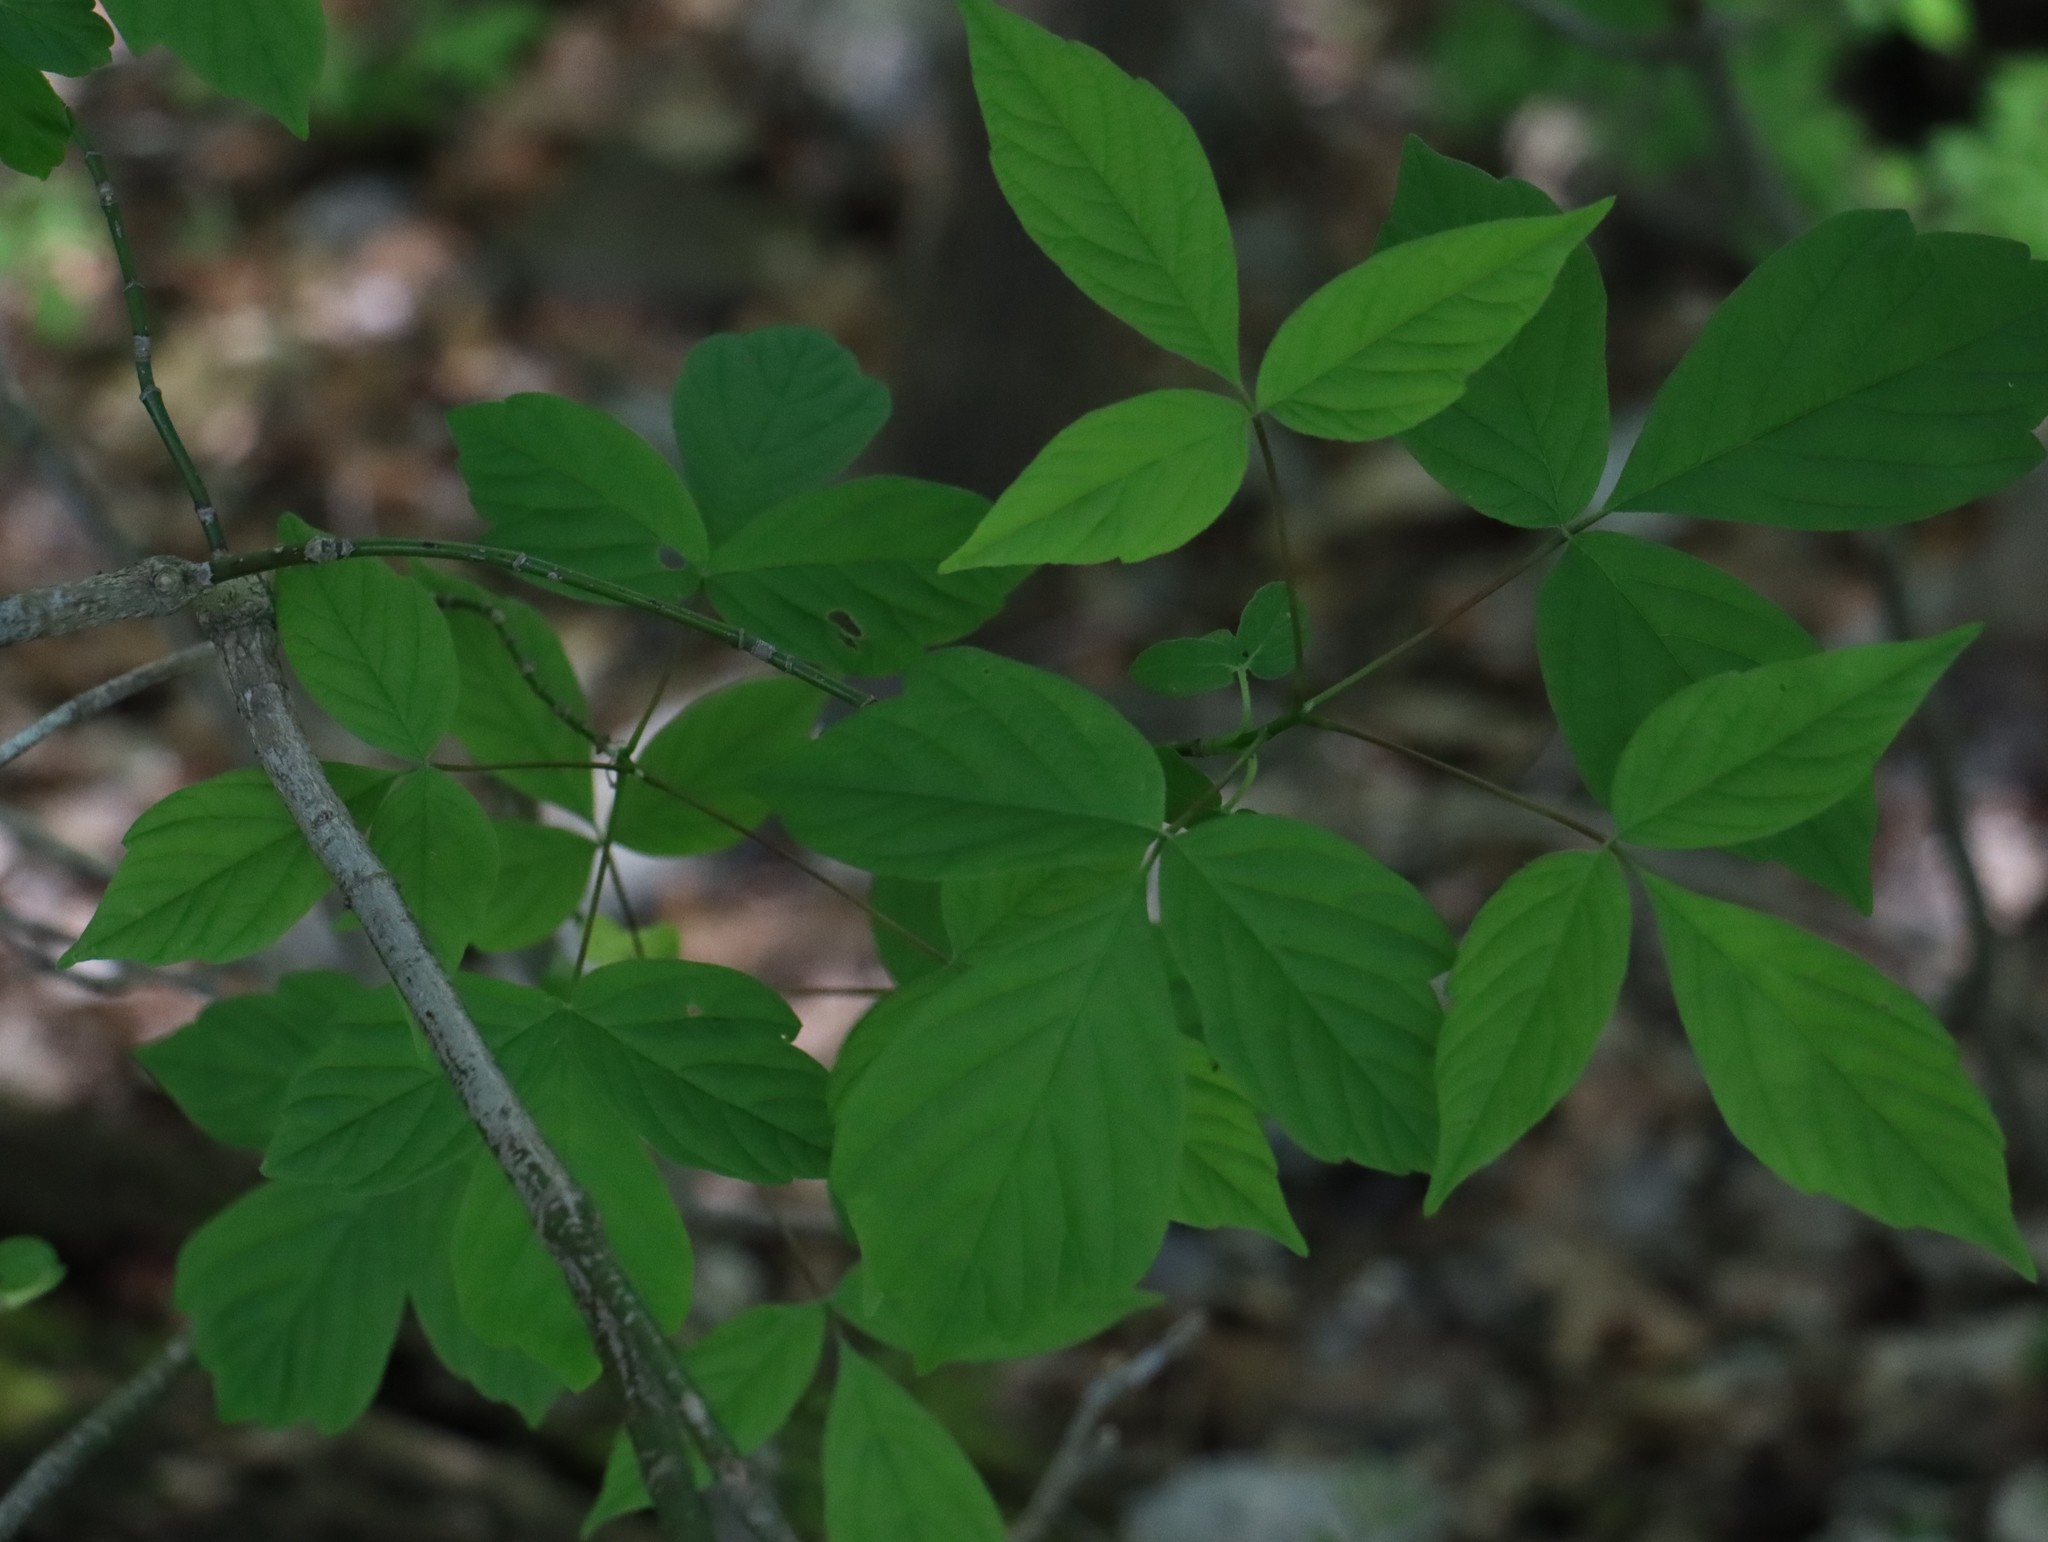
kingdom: Plantae
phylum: Tracheophyta
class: Magnoliopsida
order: Sapindales
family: Sapindaceae
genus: Acer
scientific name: Acer negundo
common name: Ashleaf maple
